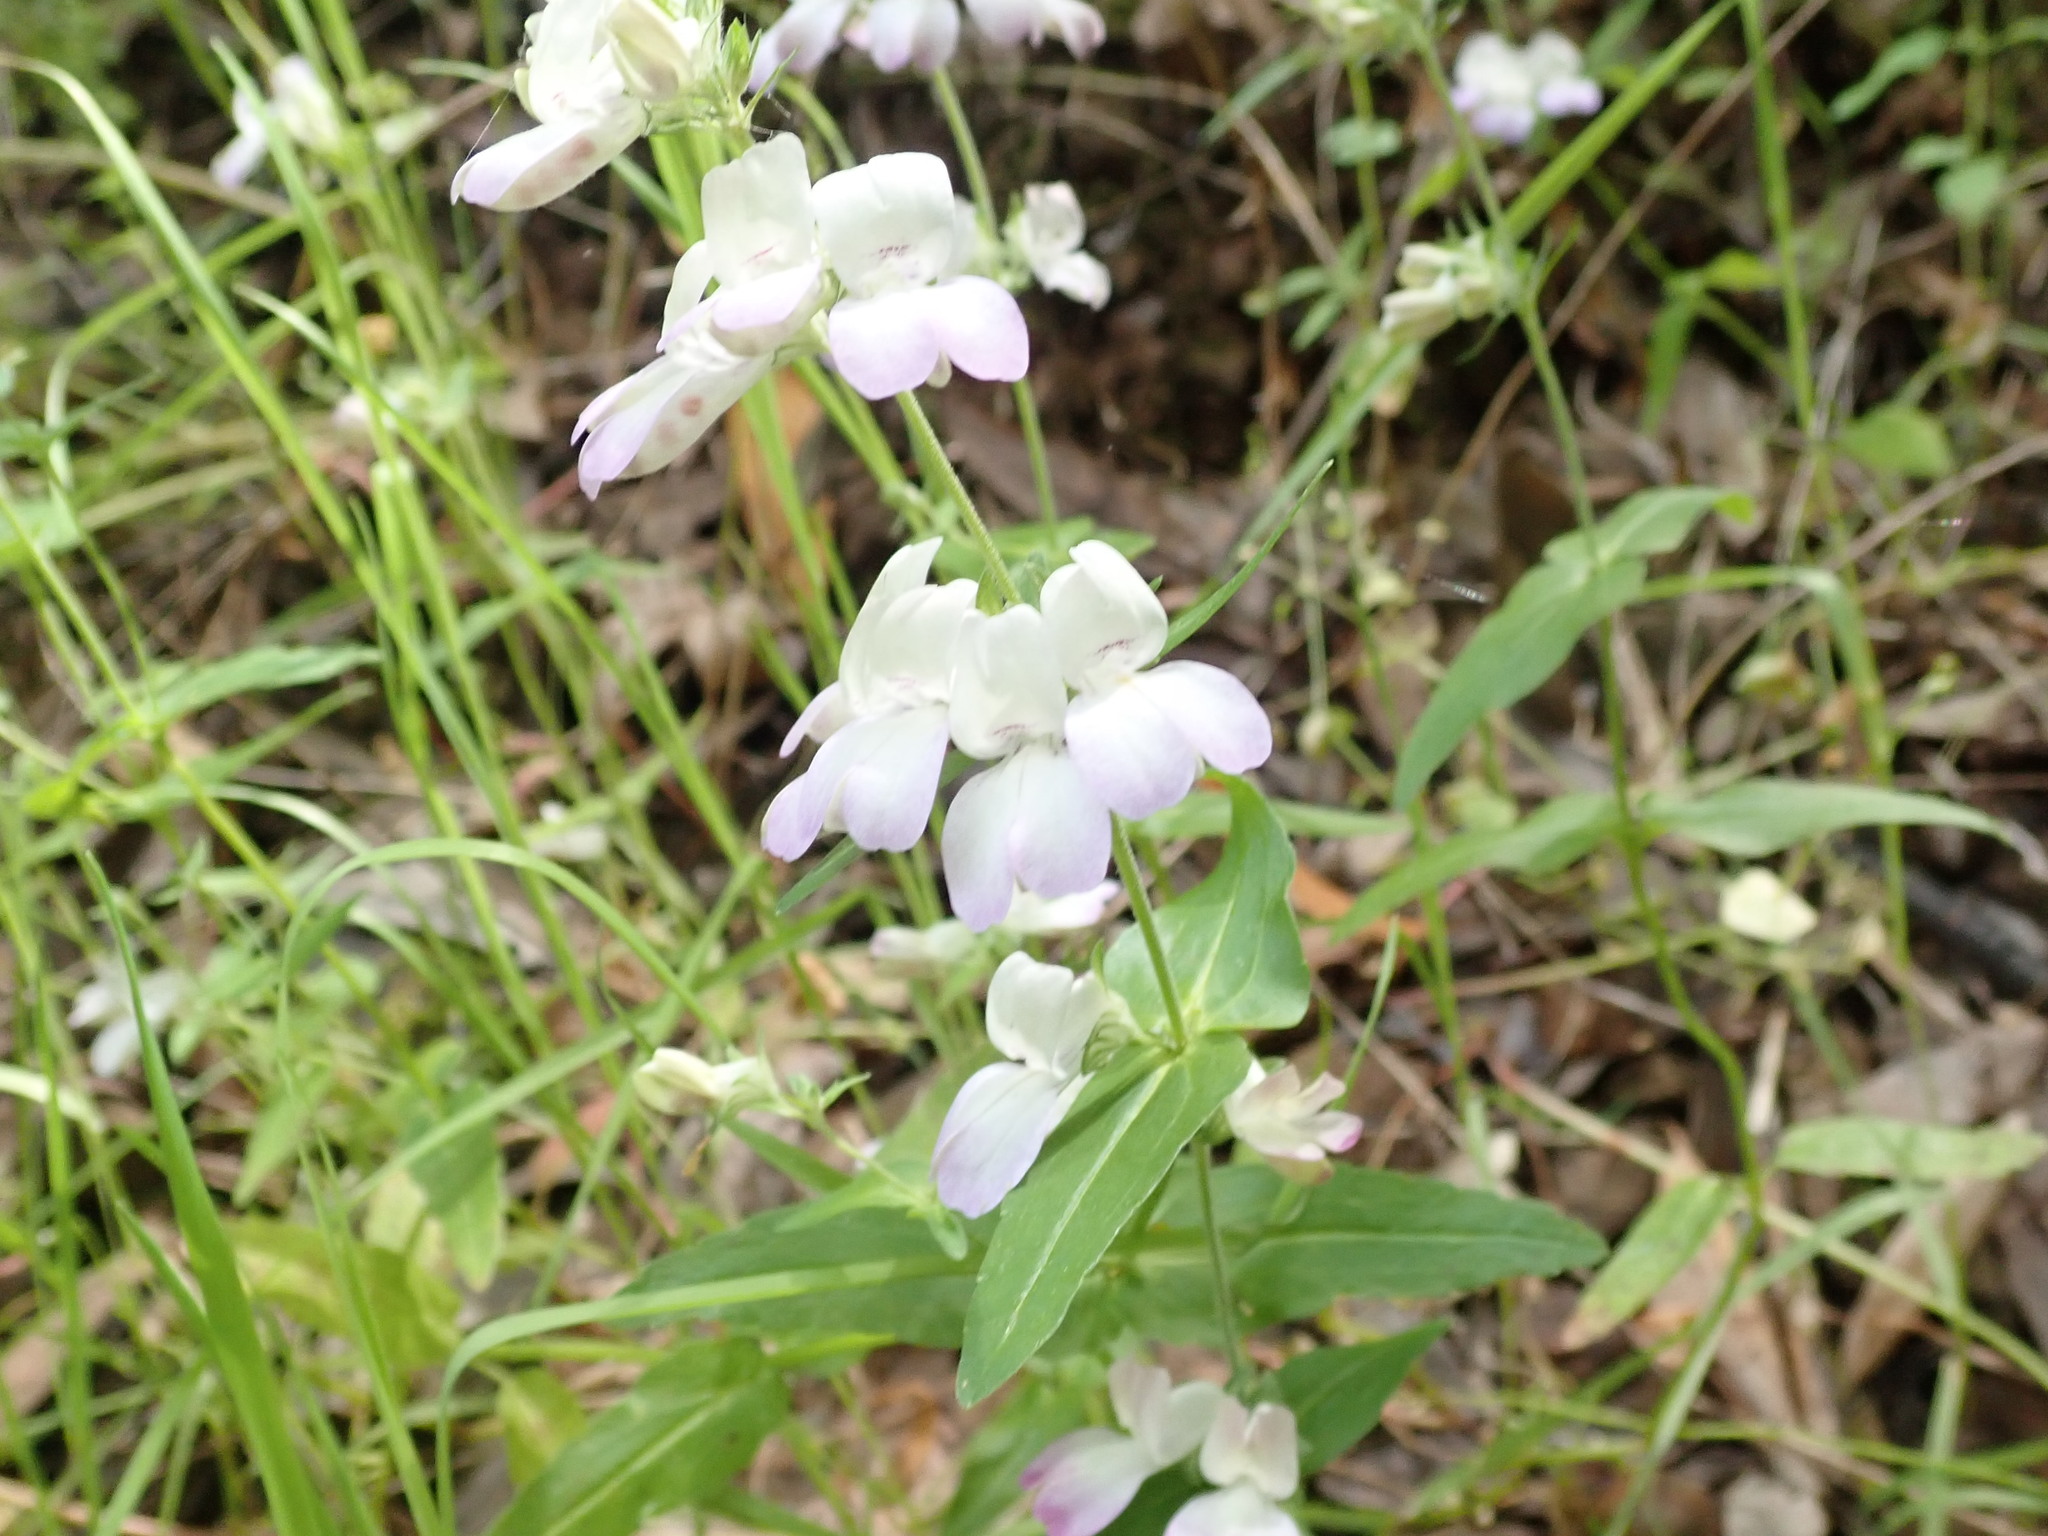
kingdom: Plantae
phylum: Tracheophyta
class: Magnoliopsida
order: Lamiales
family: Plantaginaceae
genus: Collinsia
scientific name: Collinsia heterophylla
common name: Chinese-houses
